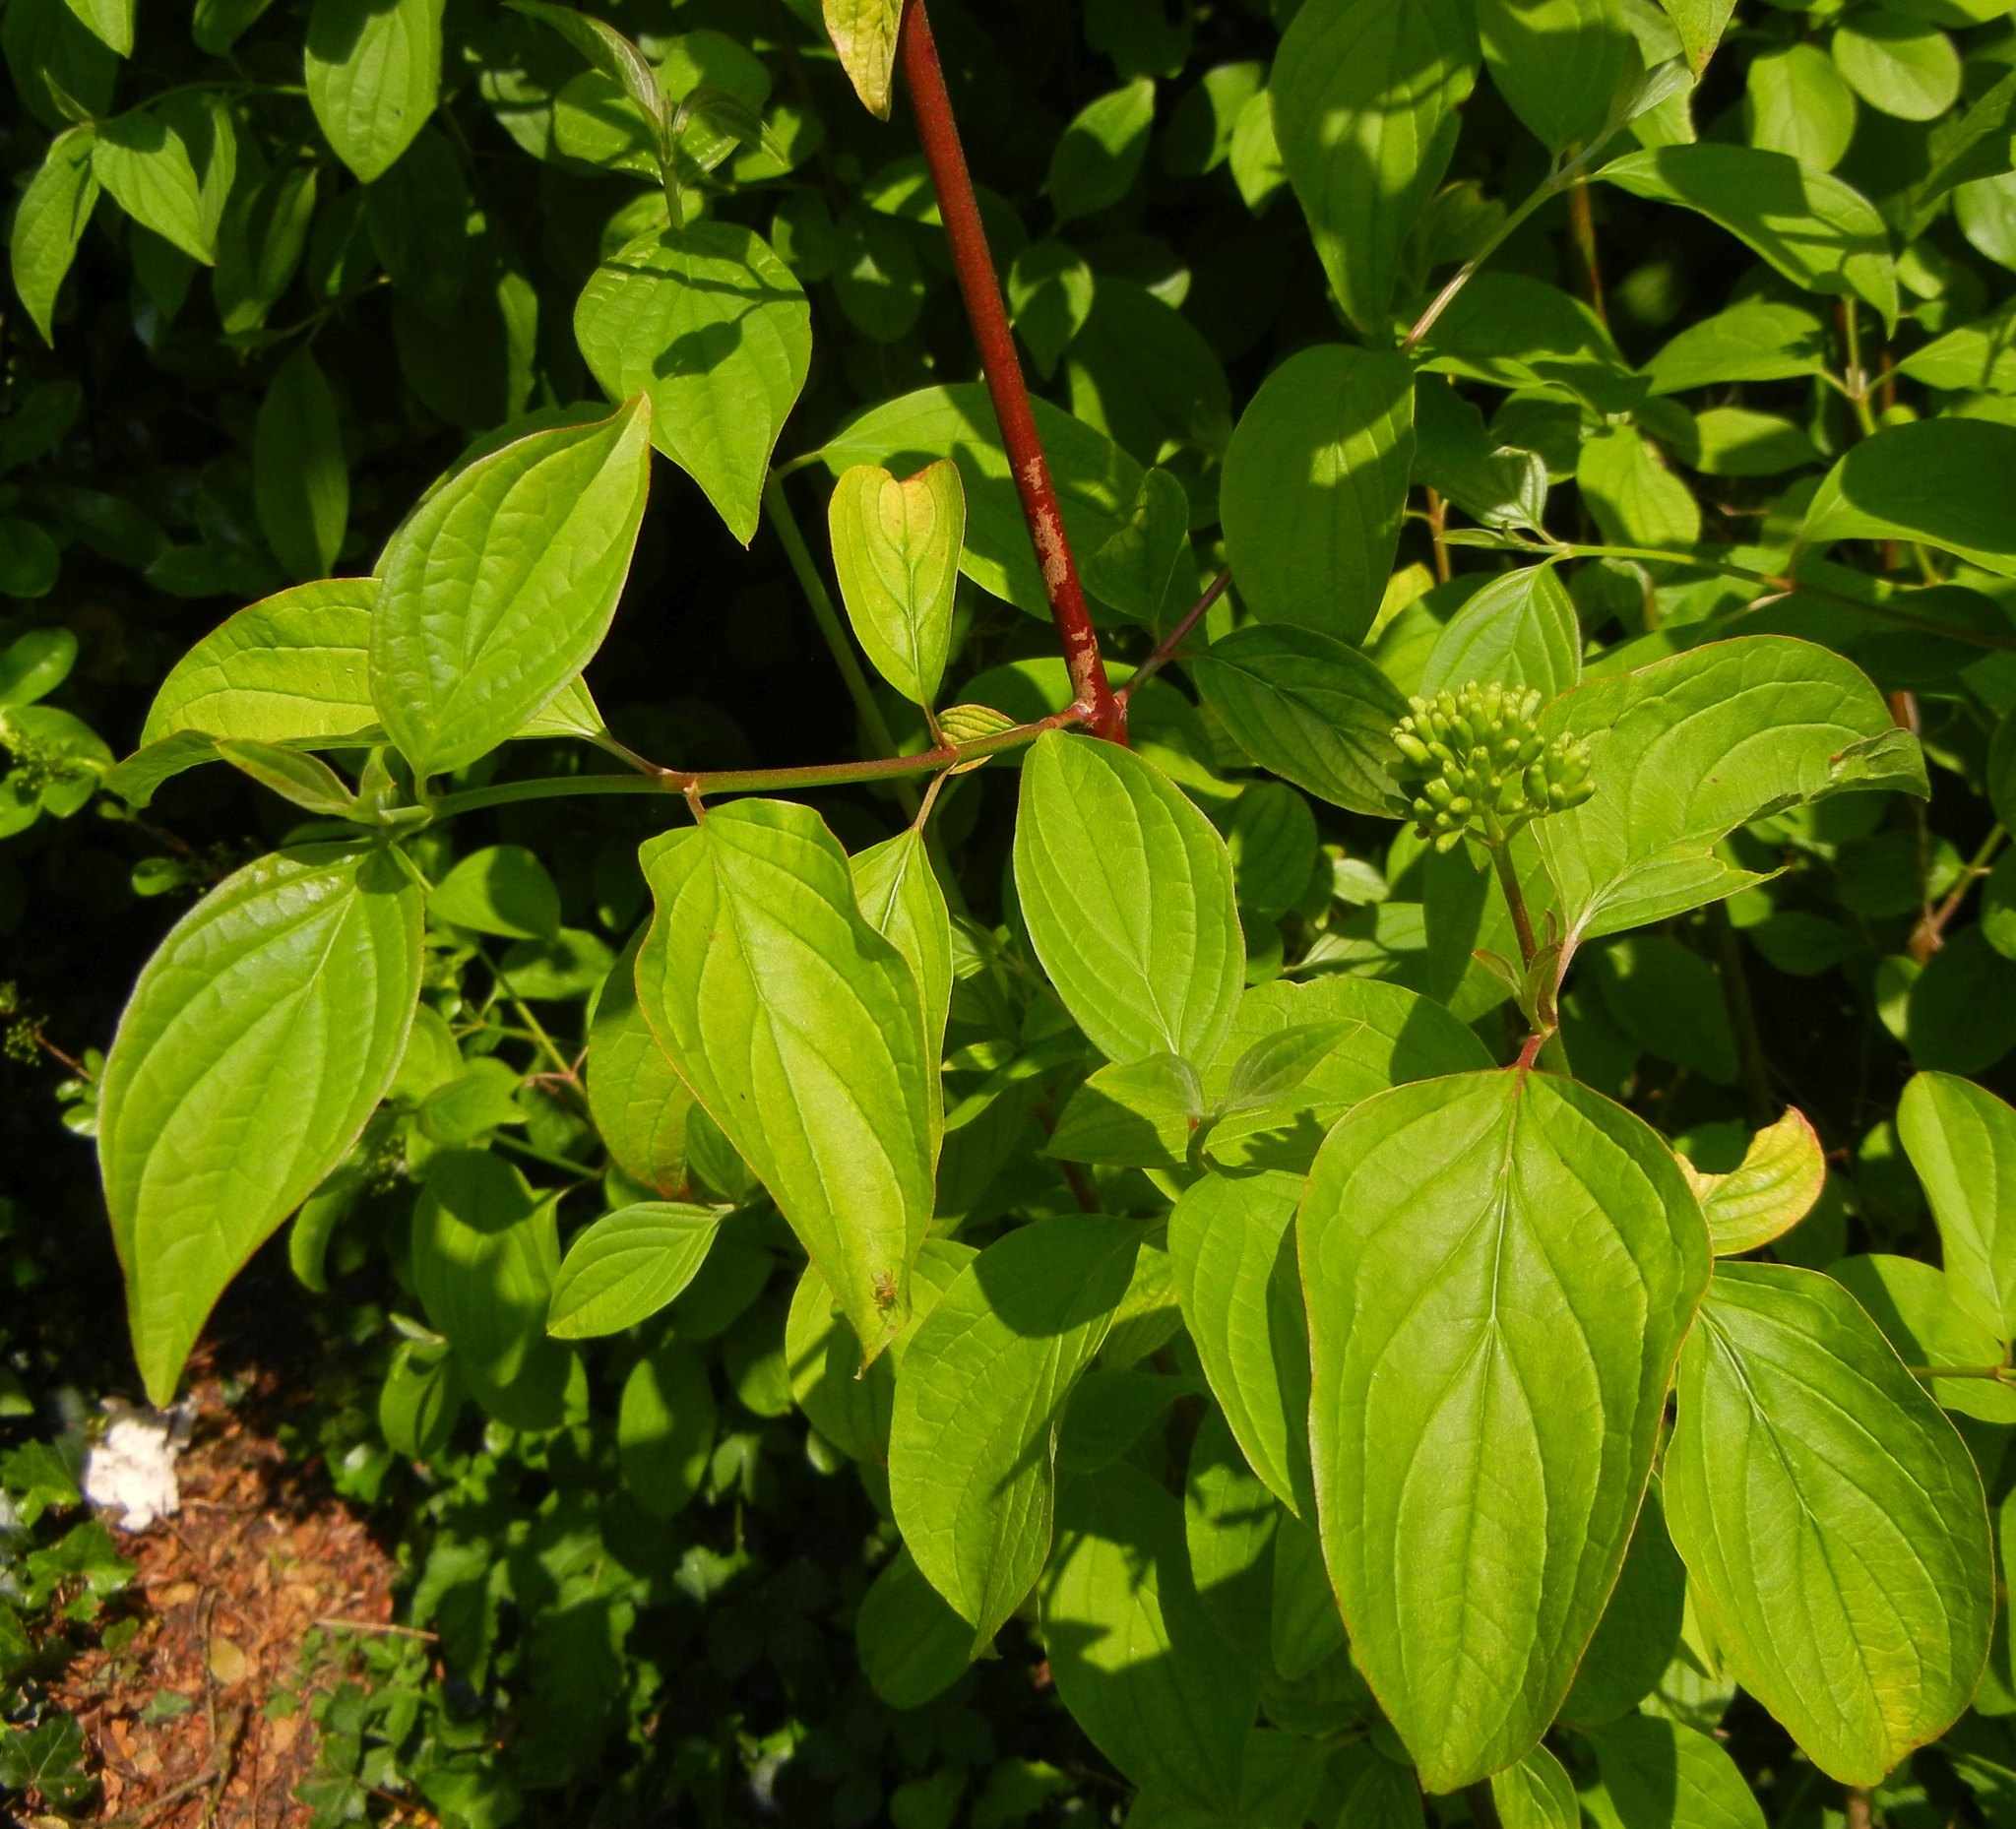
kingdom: Plantae
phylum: Tracheophyta
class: Magnoliopsida
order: Cornales
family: Cornaceae
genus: Cornus
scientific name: Cornus sanguinea
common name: Dogwood
